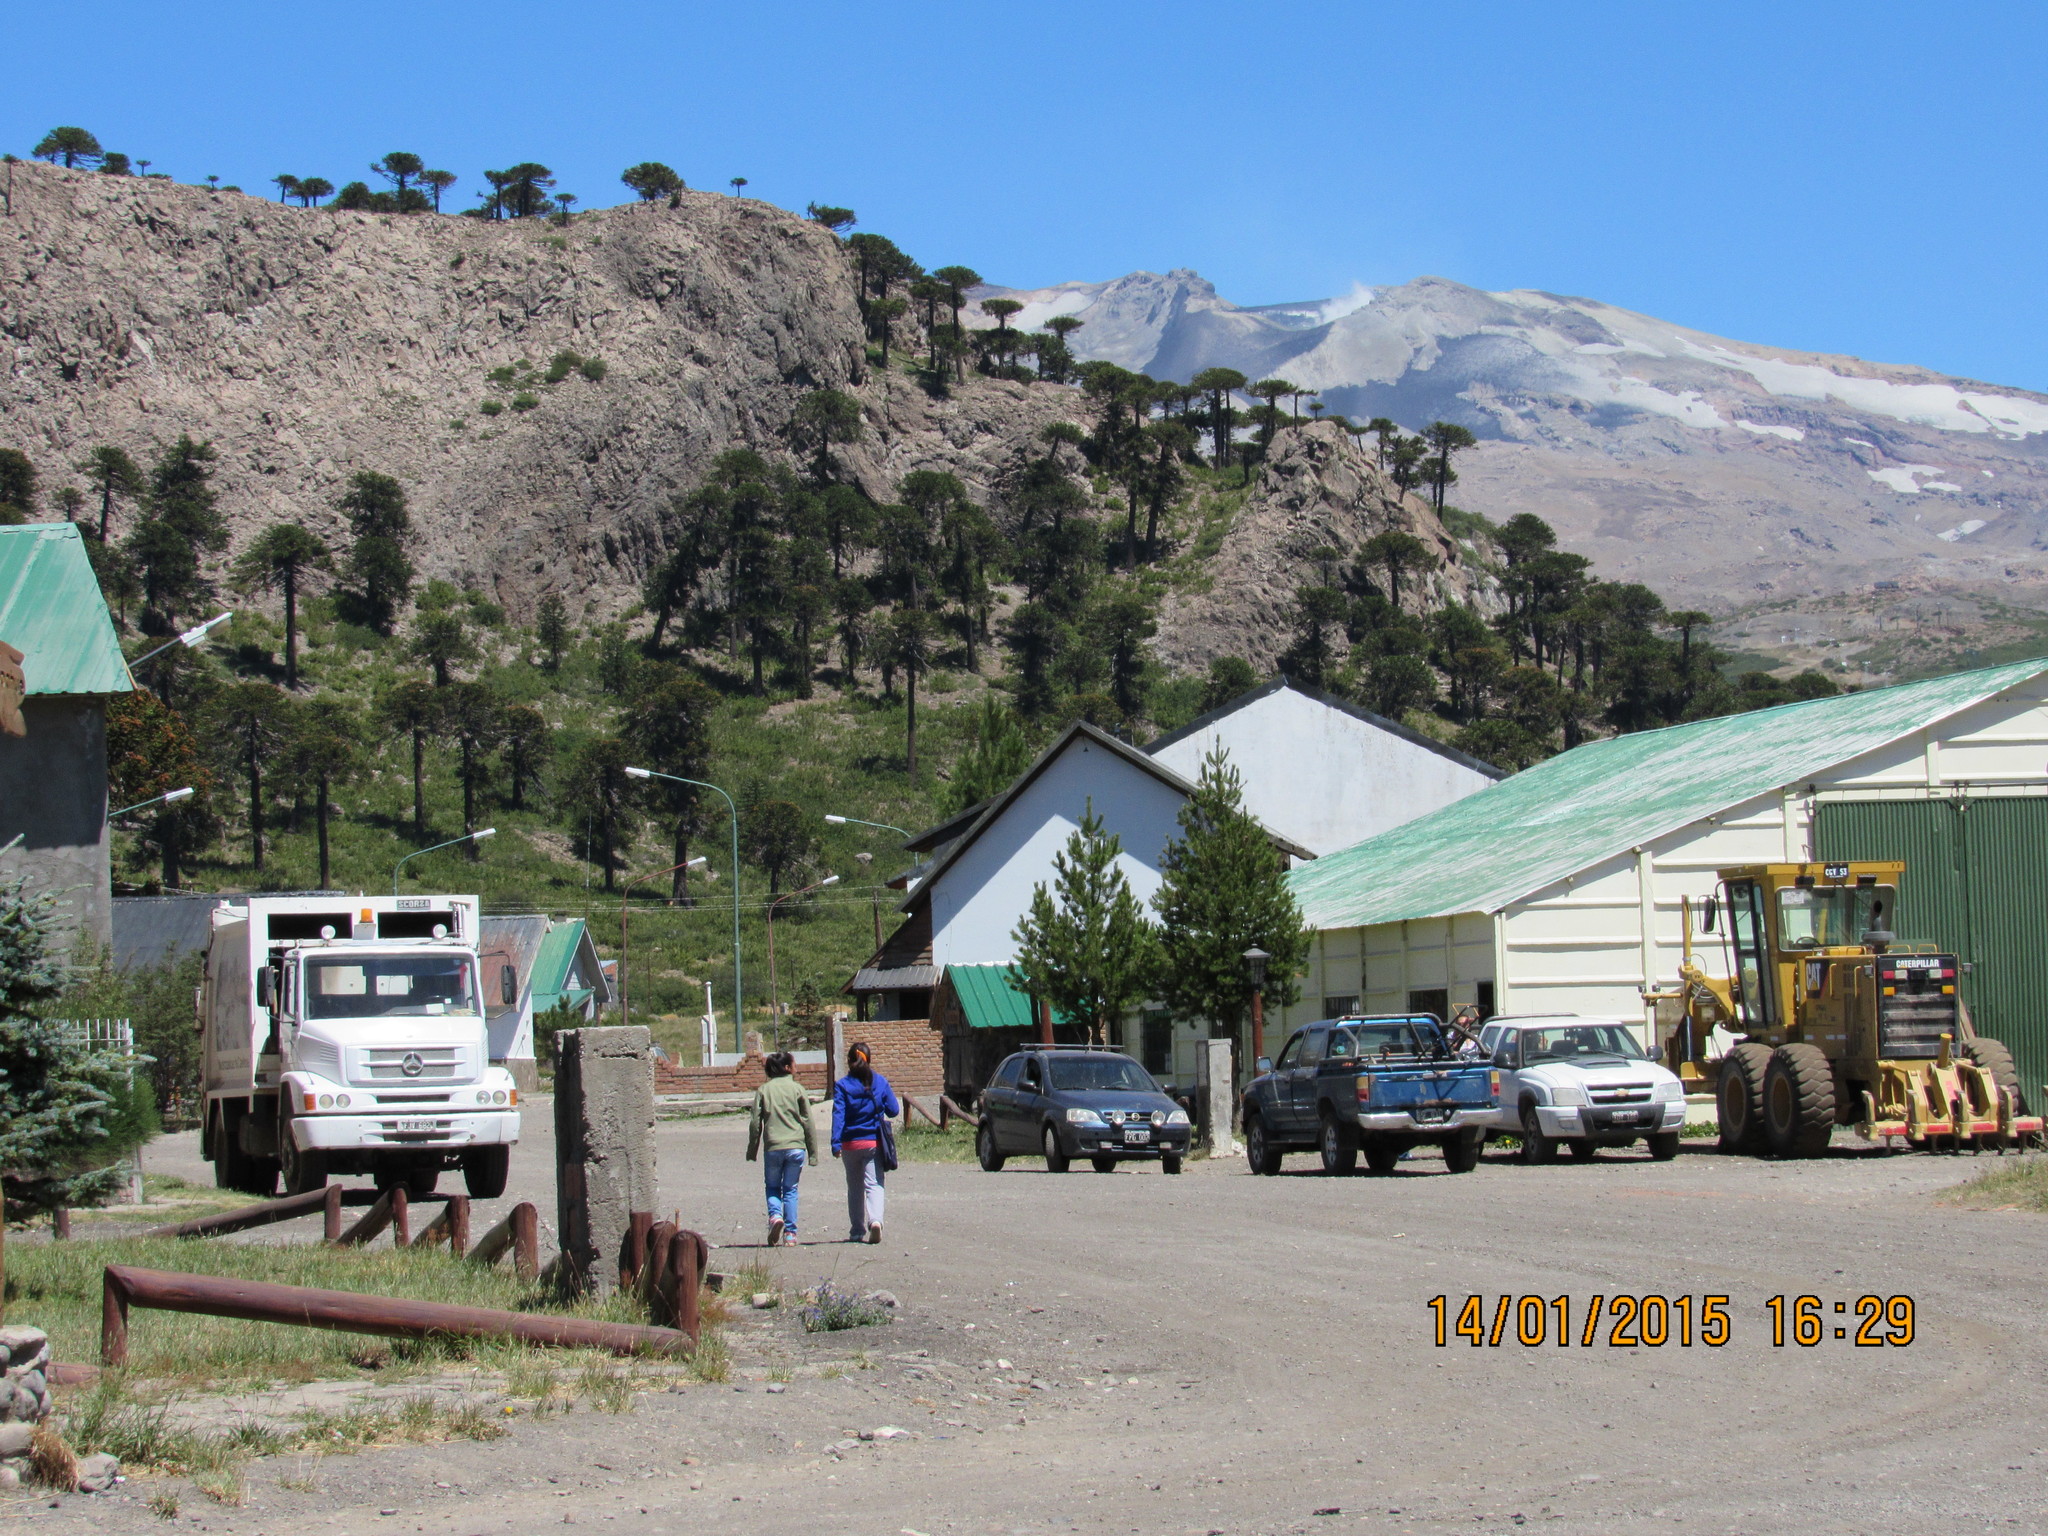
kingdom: Plantae
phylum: Tracheophyta
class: Pinopsida
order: Pinales
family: Araucariaceae
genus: Araucaria
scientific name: Araucaria araucana
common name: Monkey-puzzle
